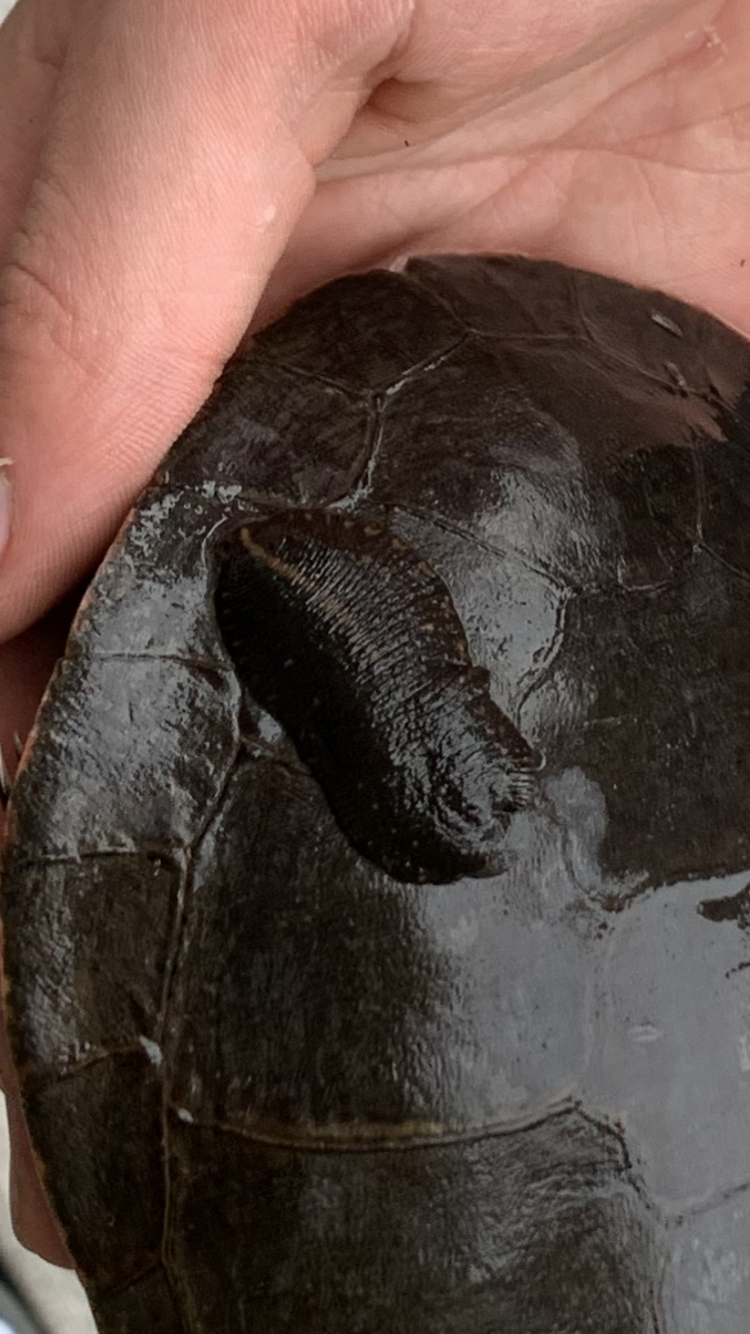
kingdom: Animalia
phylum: Annelida
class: Clitellata
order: Rhynchobdellida
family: Glossiphoniidae
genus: Placobdella
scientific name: Placobdella parasitica
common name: Smooth turtle leech
